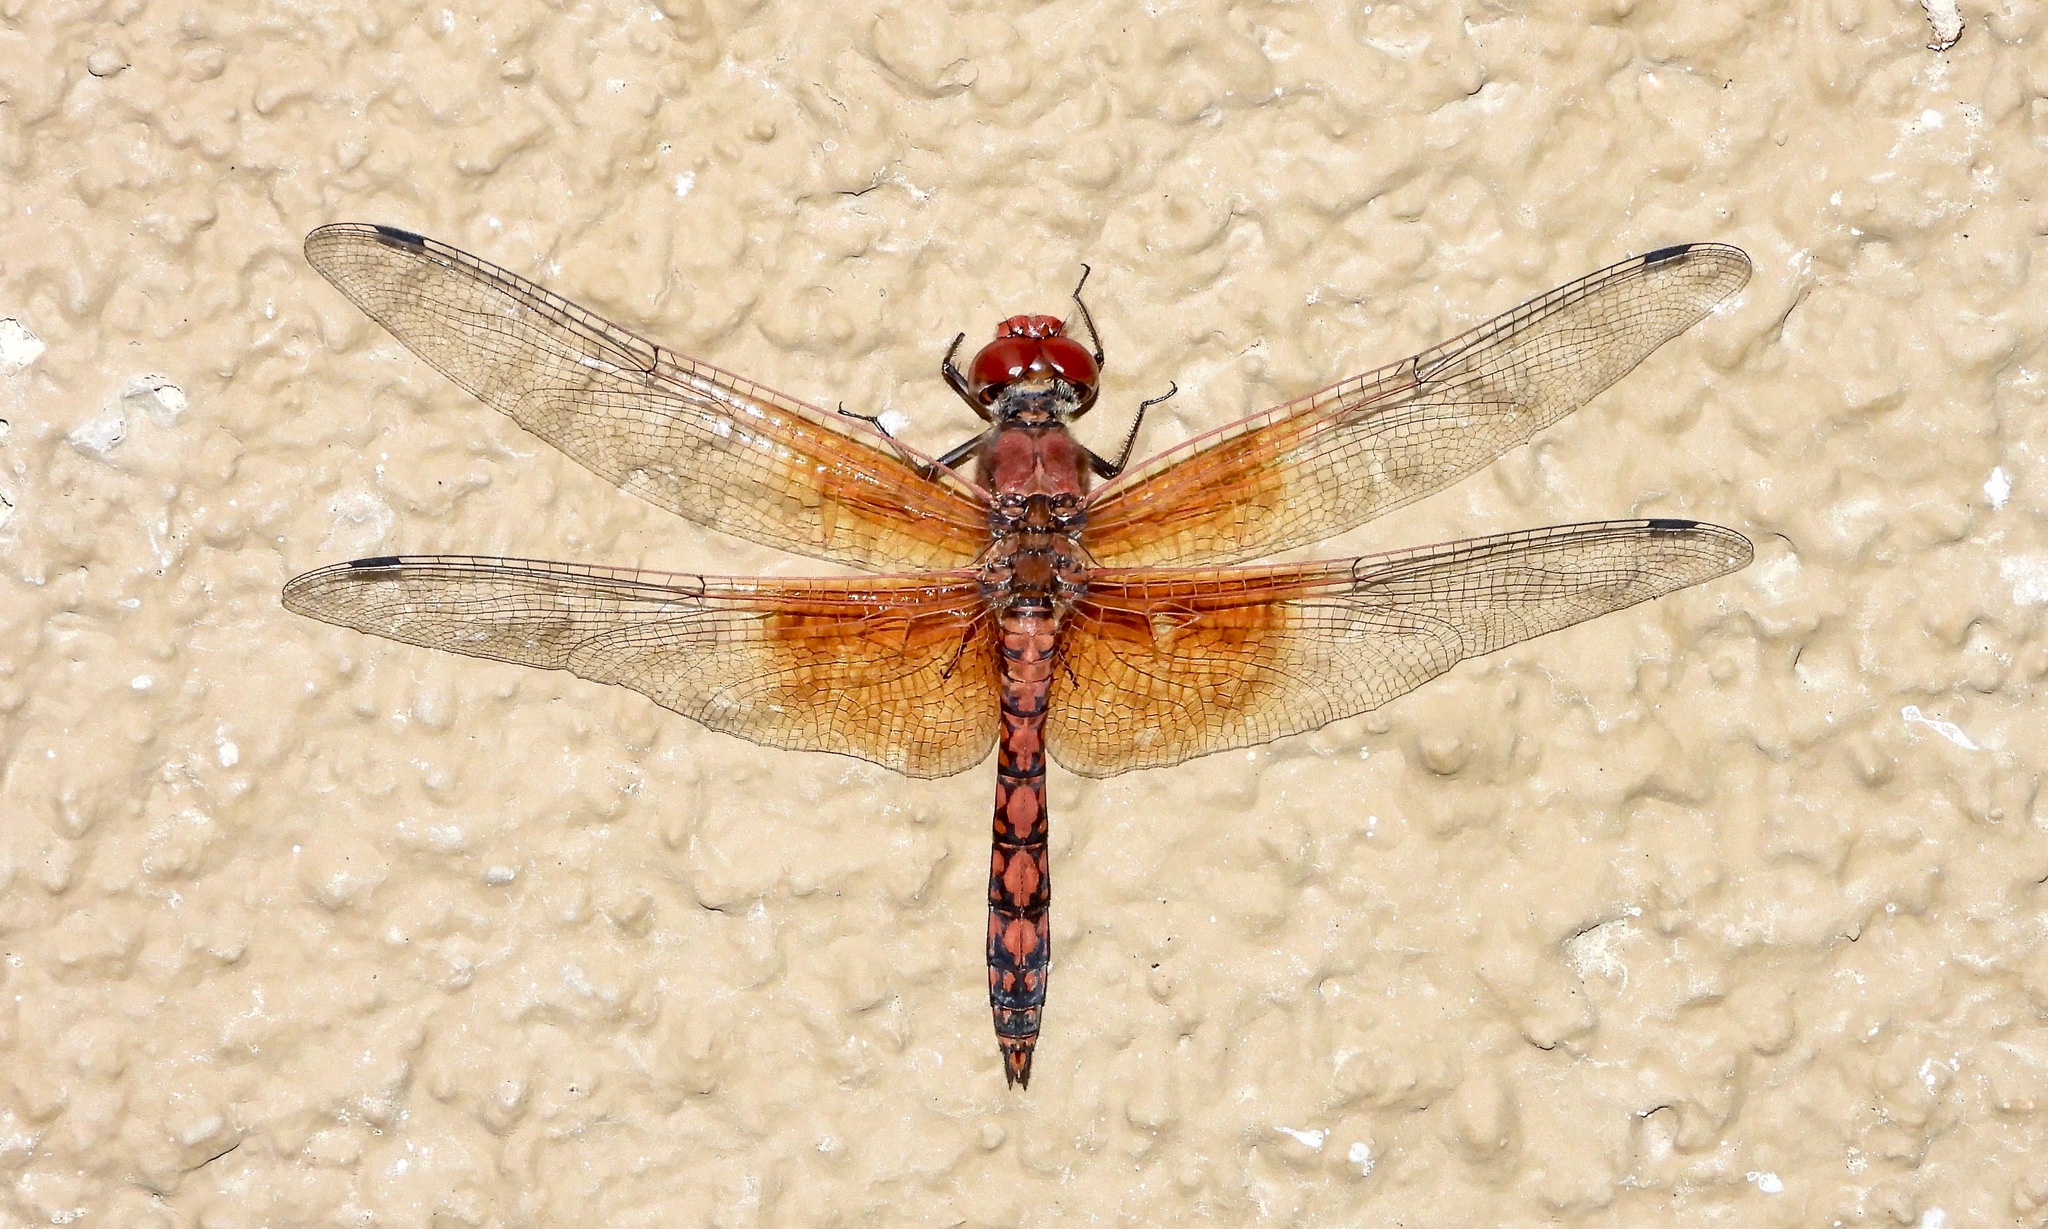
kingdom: Animalia
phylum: Arthropoda
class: Insecta
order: Odonata
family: Libellulidae
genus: Paltothemis
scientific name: Paltothemis lineatipes
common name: Red rock skimmer
